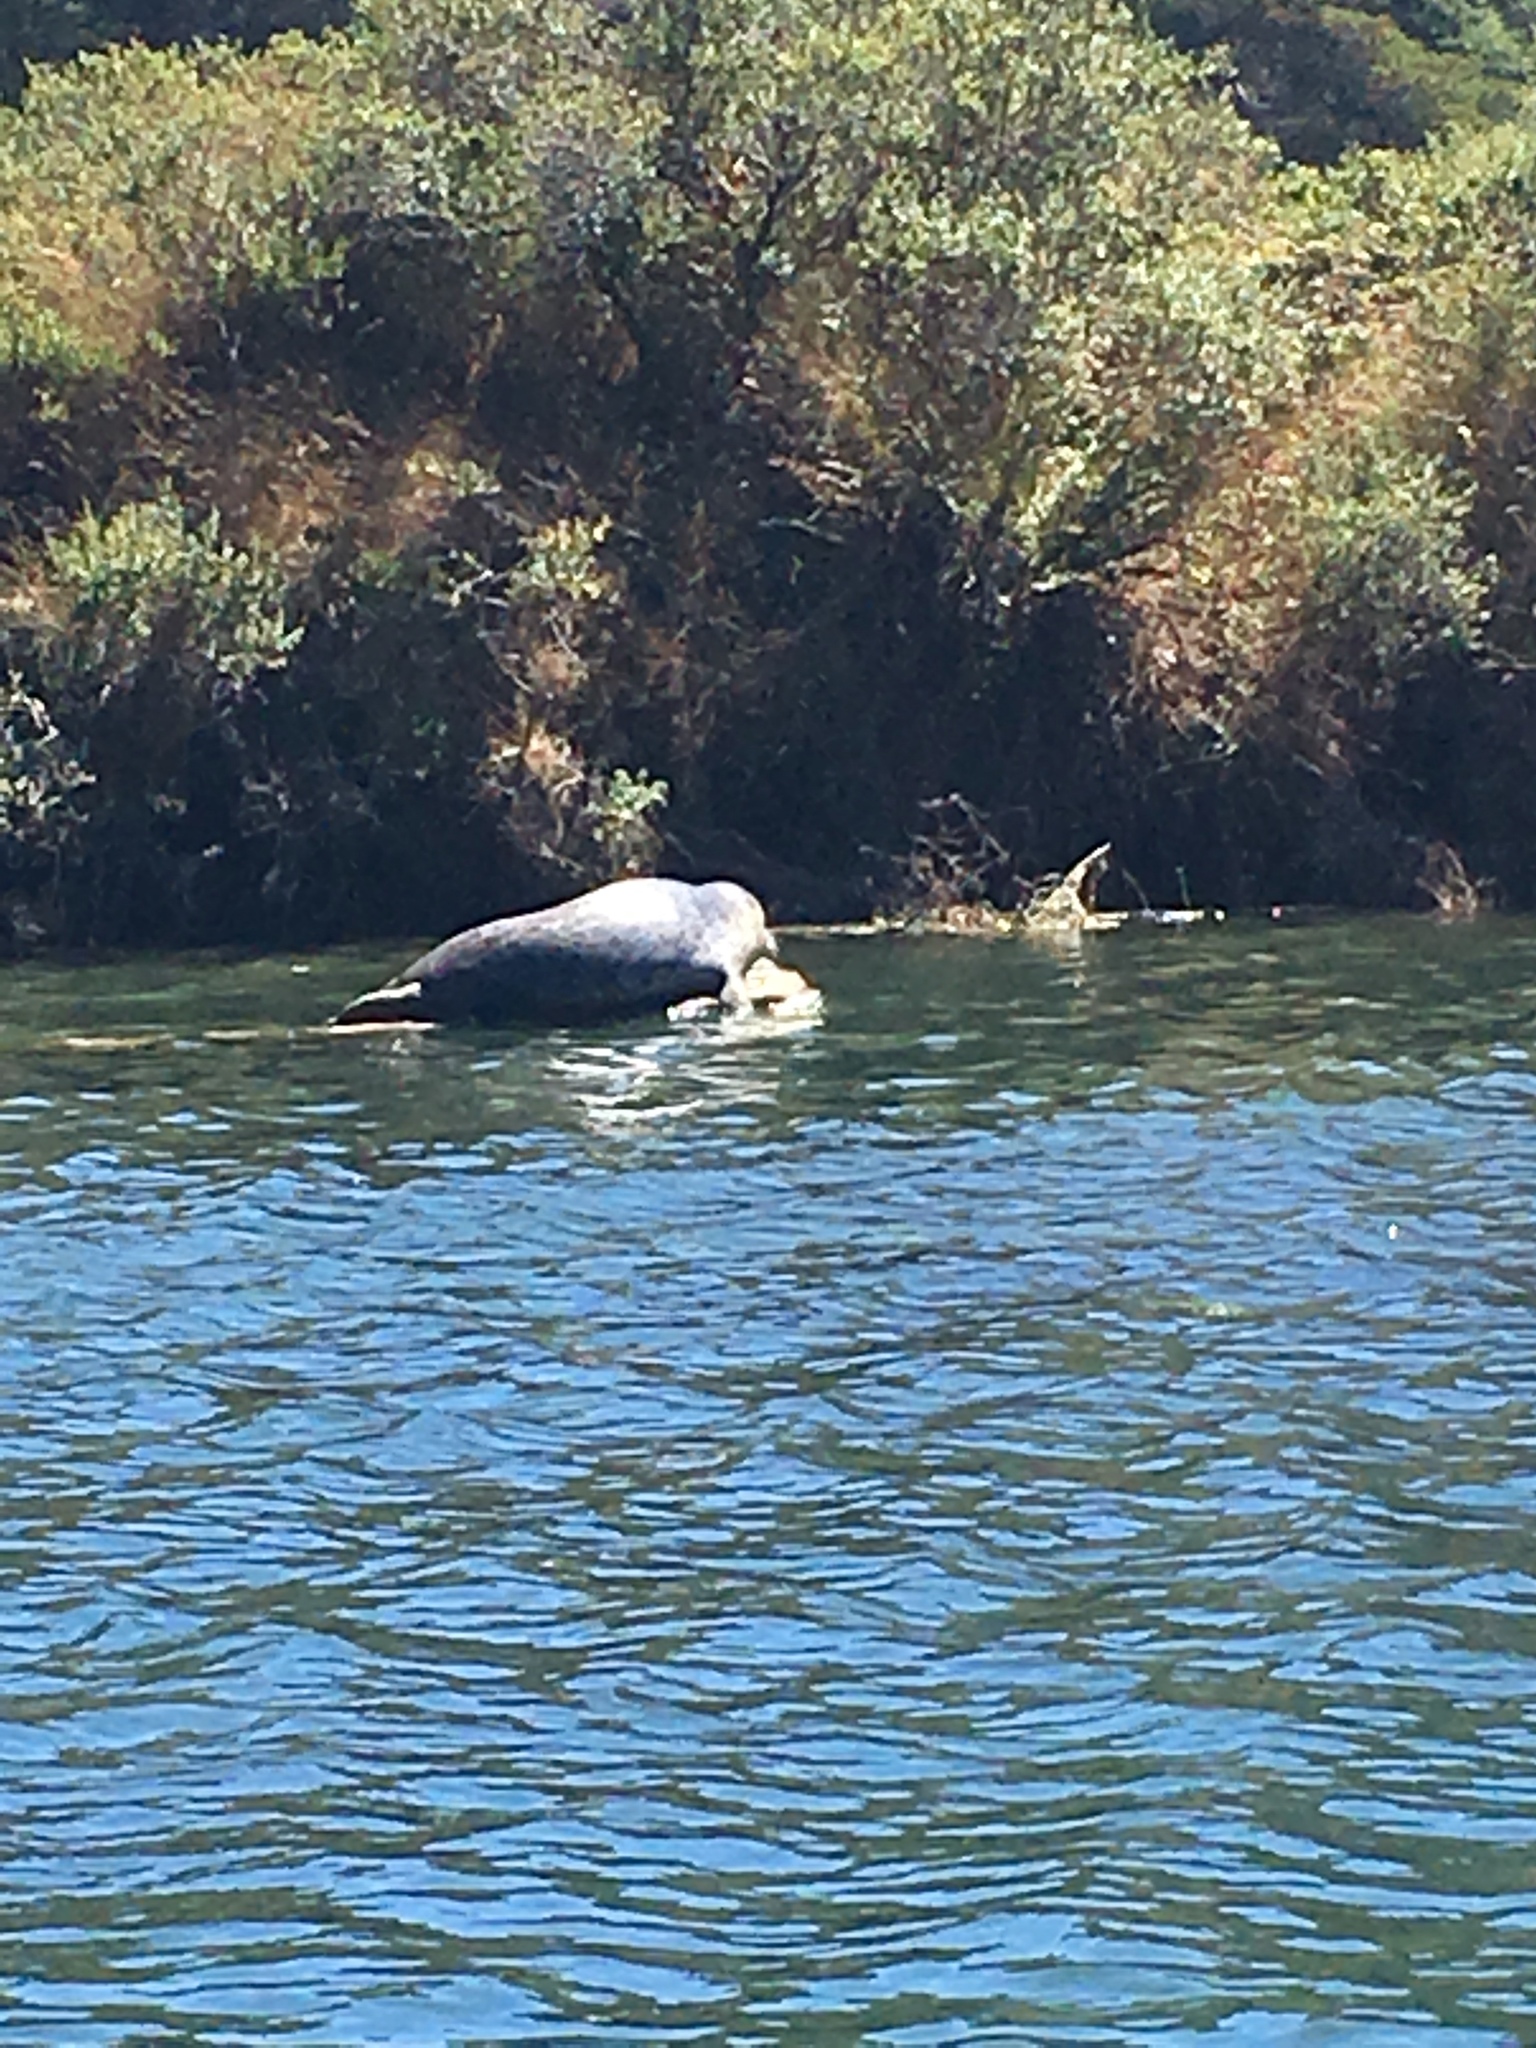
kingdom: Animalia
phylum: Chordata
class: Mammalia
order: Carnivora
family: Phocidae
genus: Phoca
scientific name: Phoca vitulina
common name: Harbor seal
